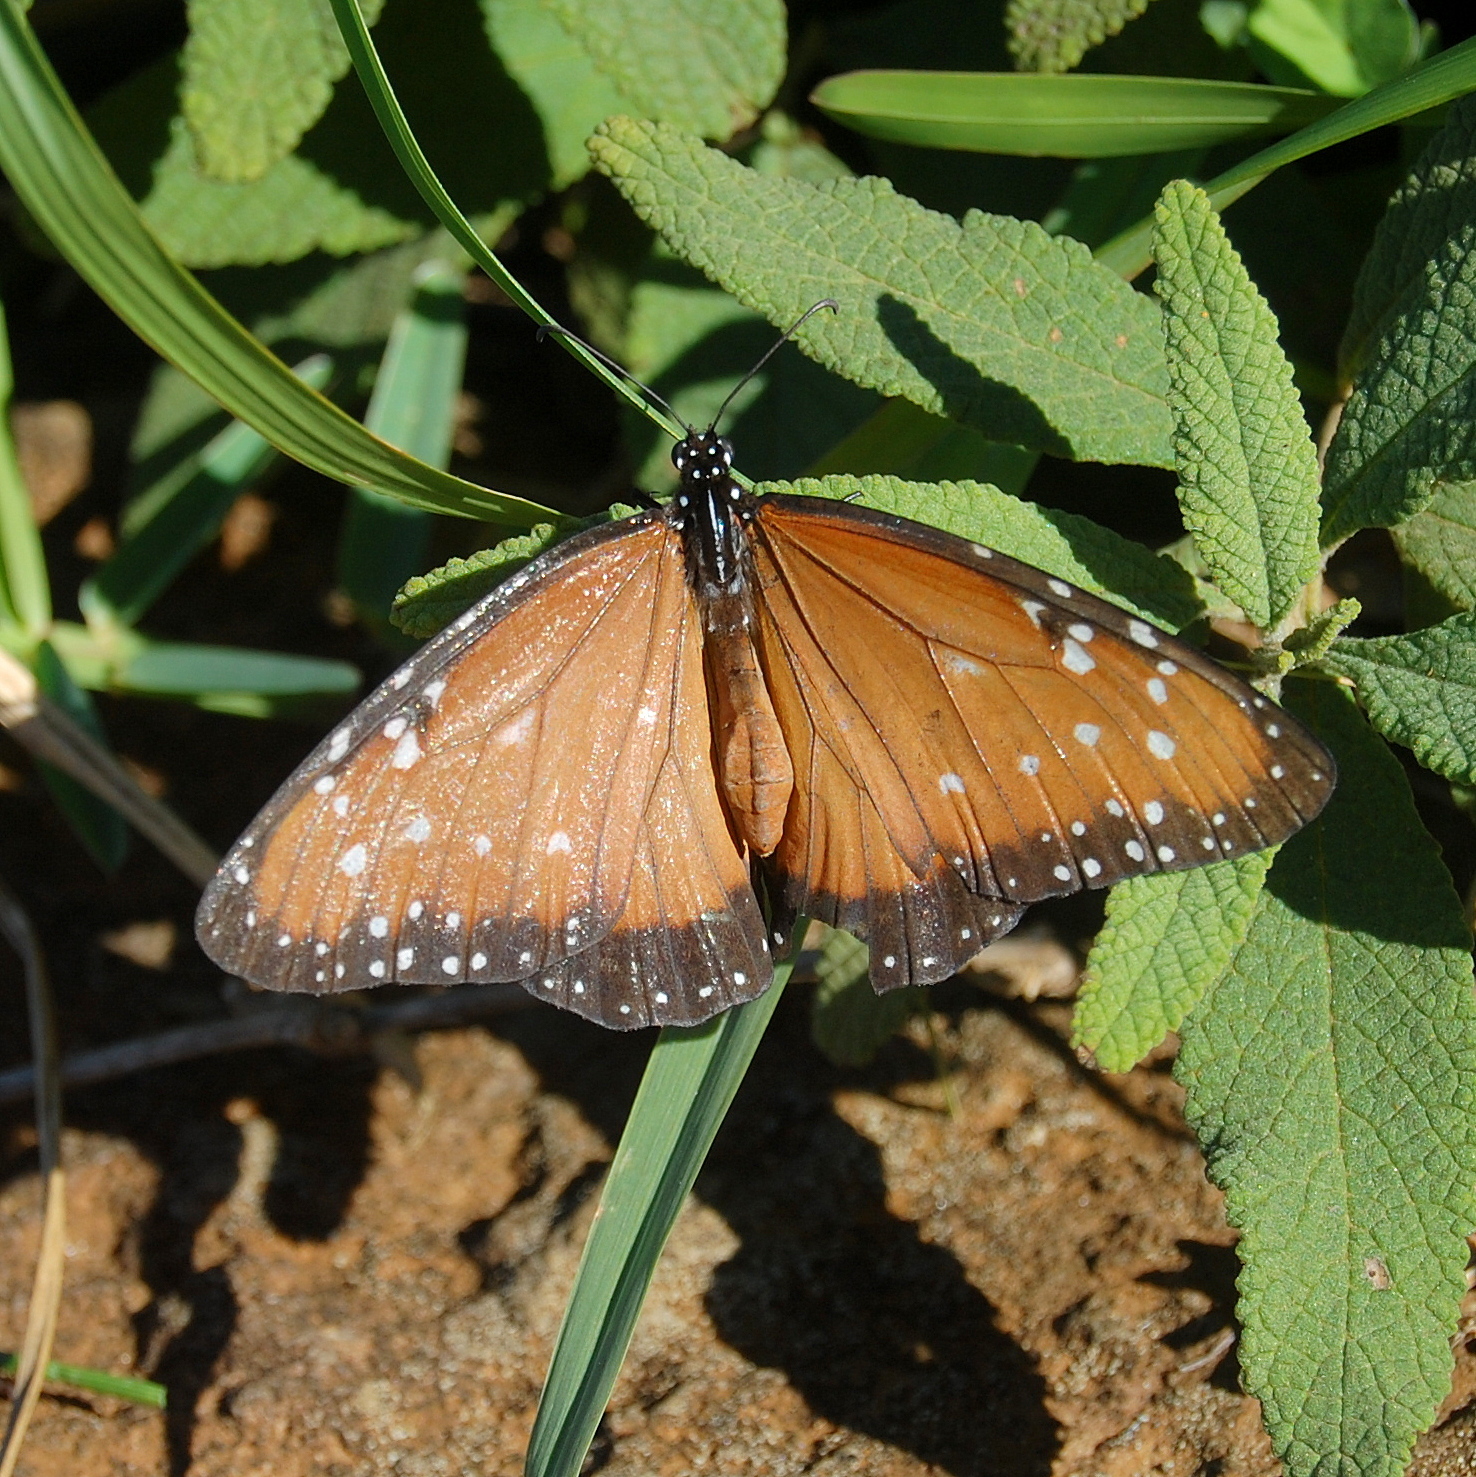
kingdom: Animalia
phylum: Arthropoda
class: Insecta
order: Lepidoptera
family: Nymphalidae
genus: Danaus
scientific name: Danaus gilippus
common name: Queen
